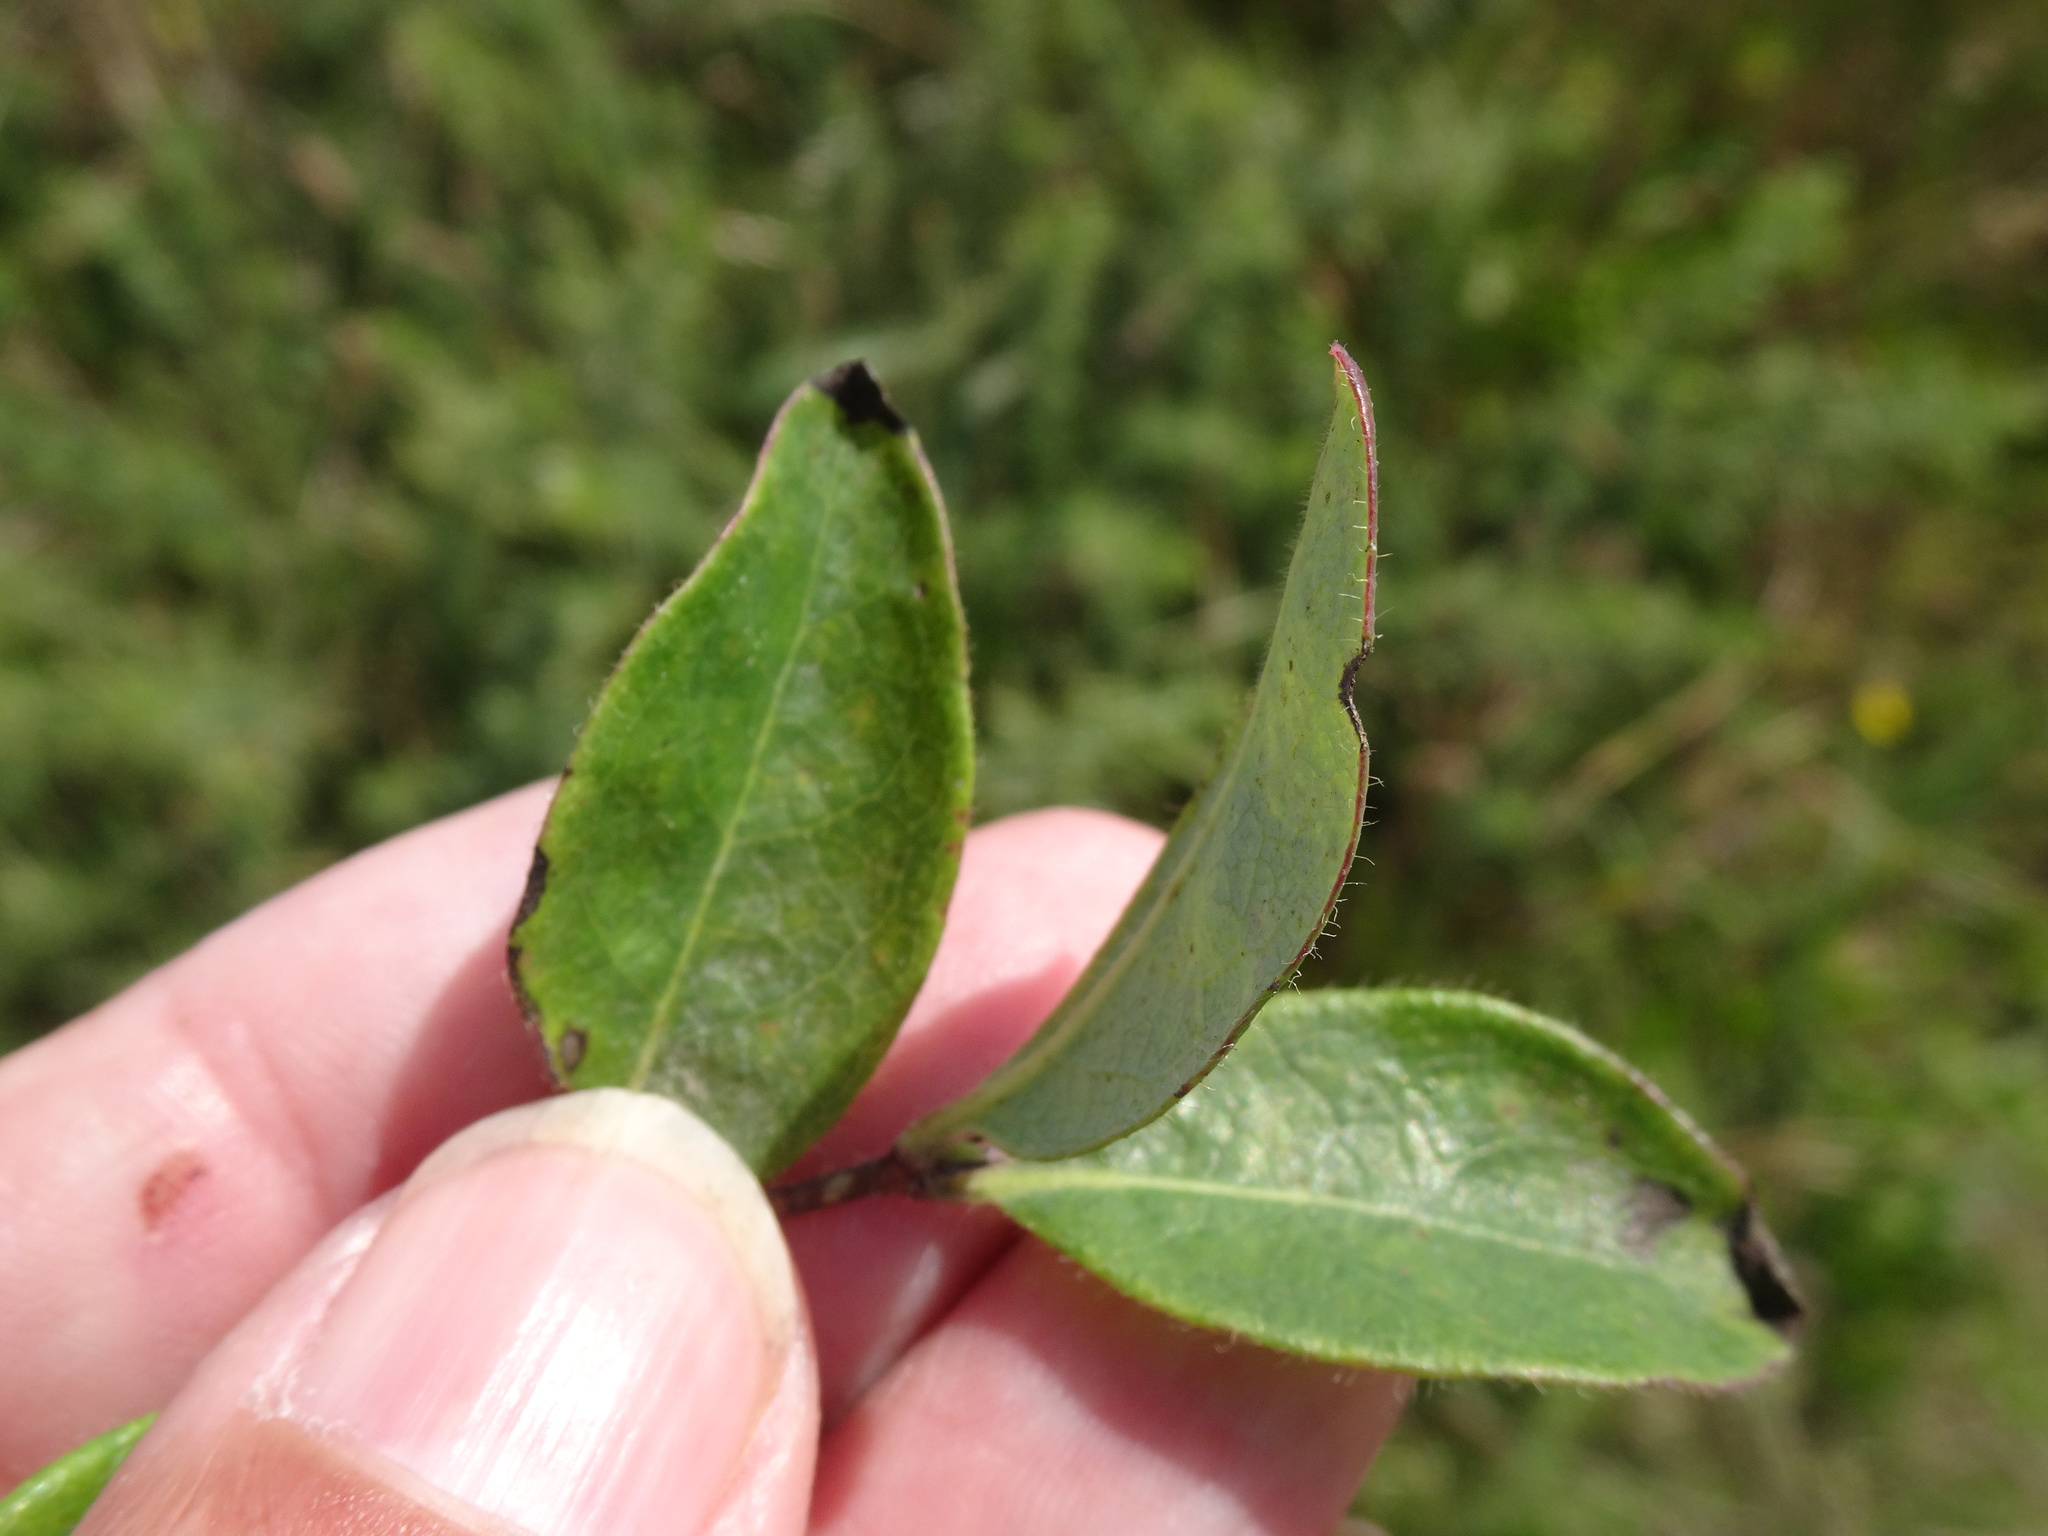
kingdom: Plantae
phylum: Tracheophyta
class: Magnoliopsida
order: Dipsacales
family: Caprifoliaceae
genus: Lonicera
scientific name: Lonicera periclymenum
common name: European honeysuckle
